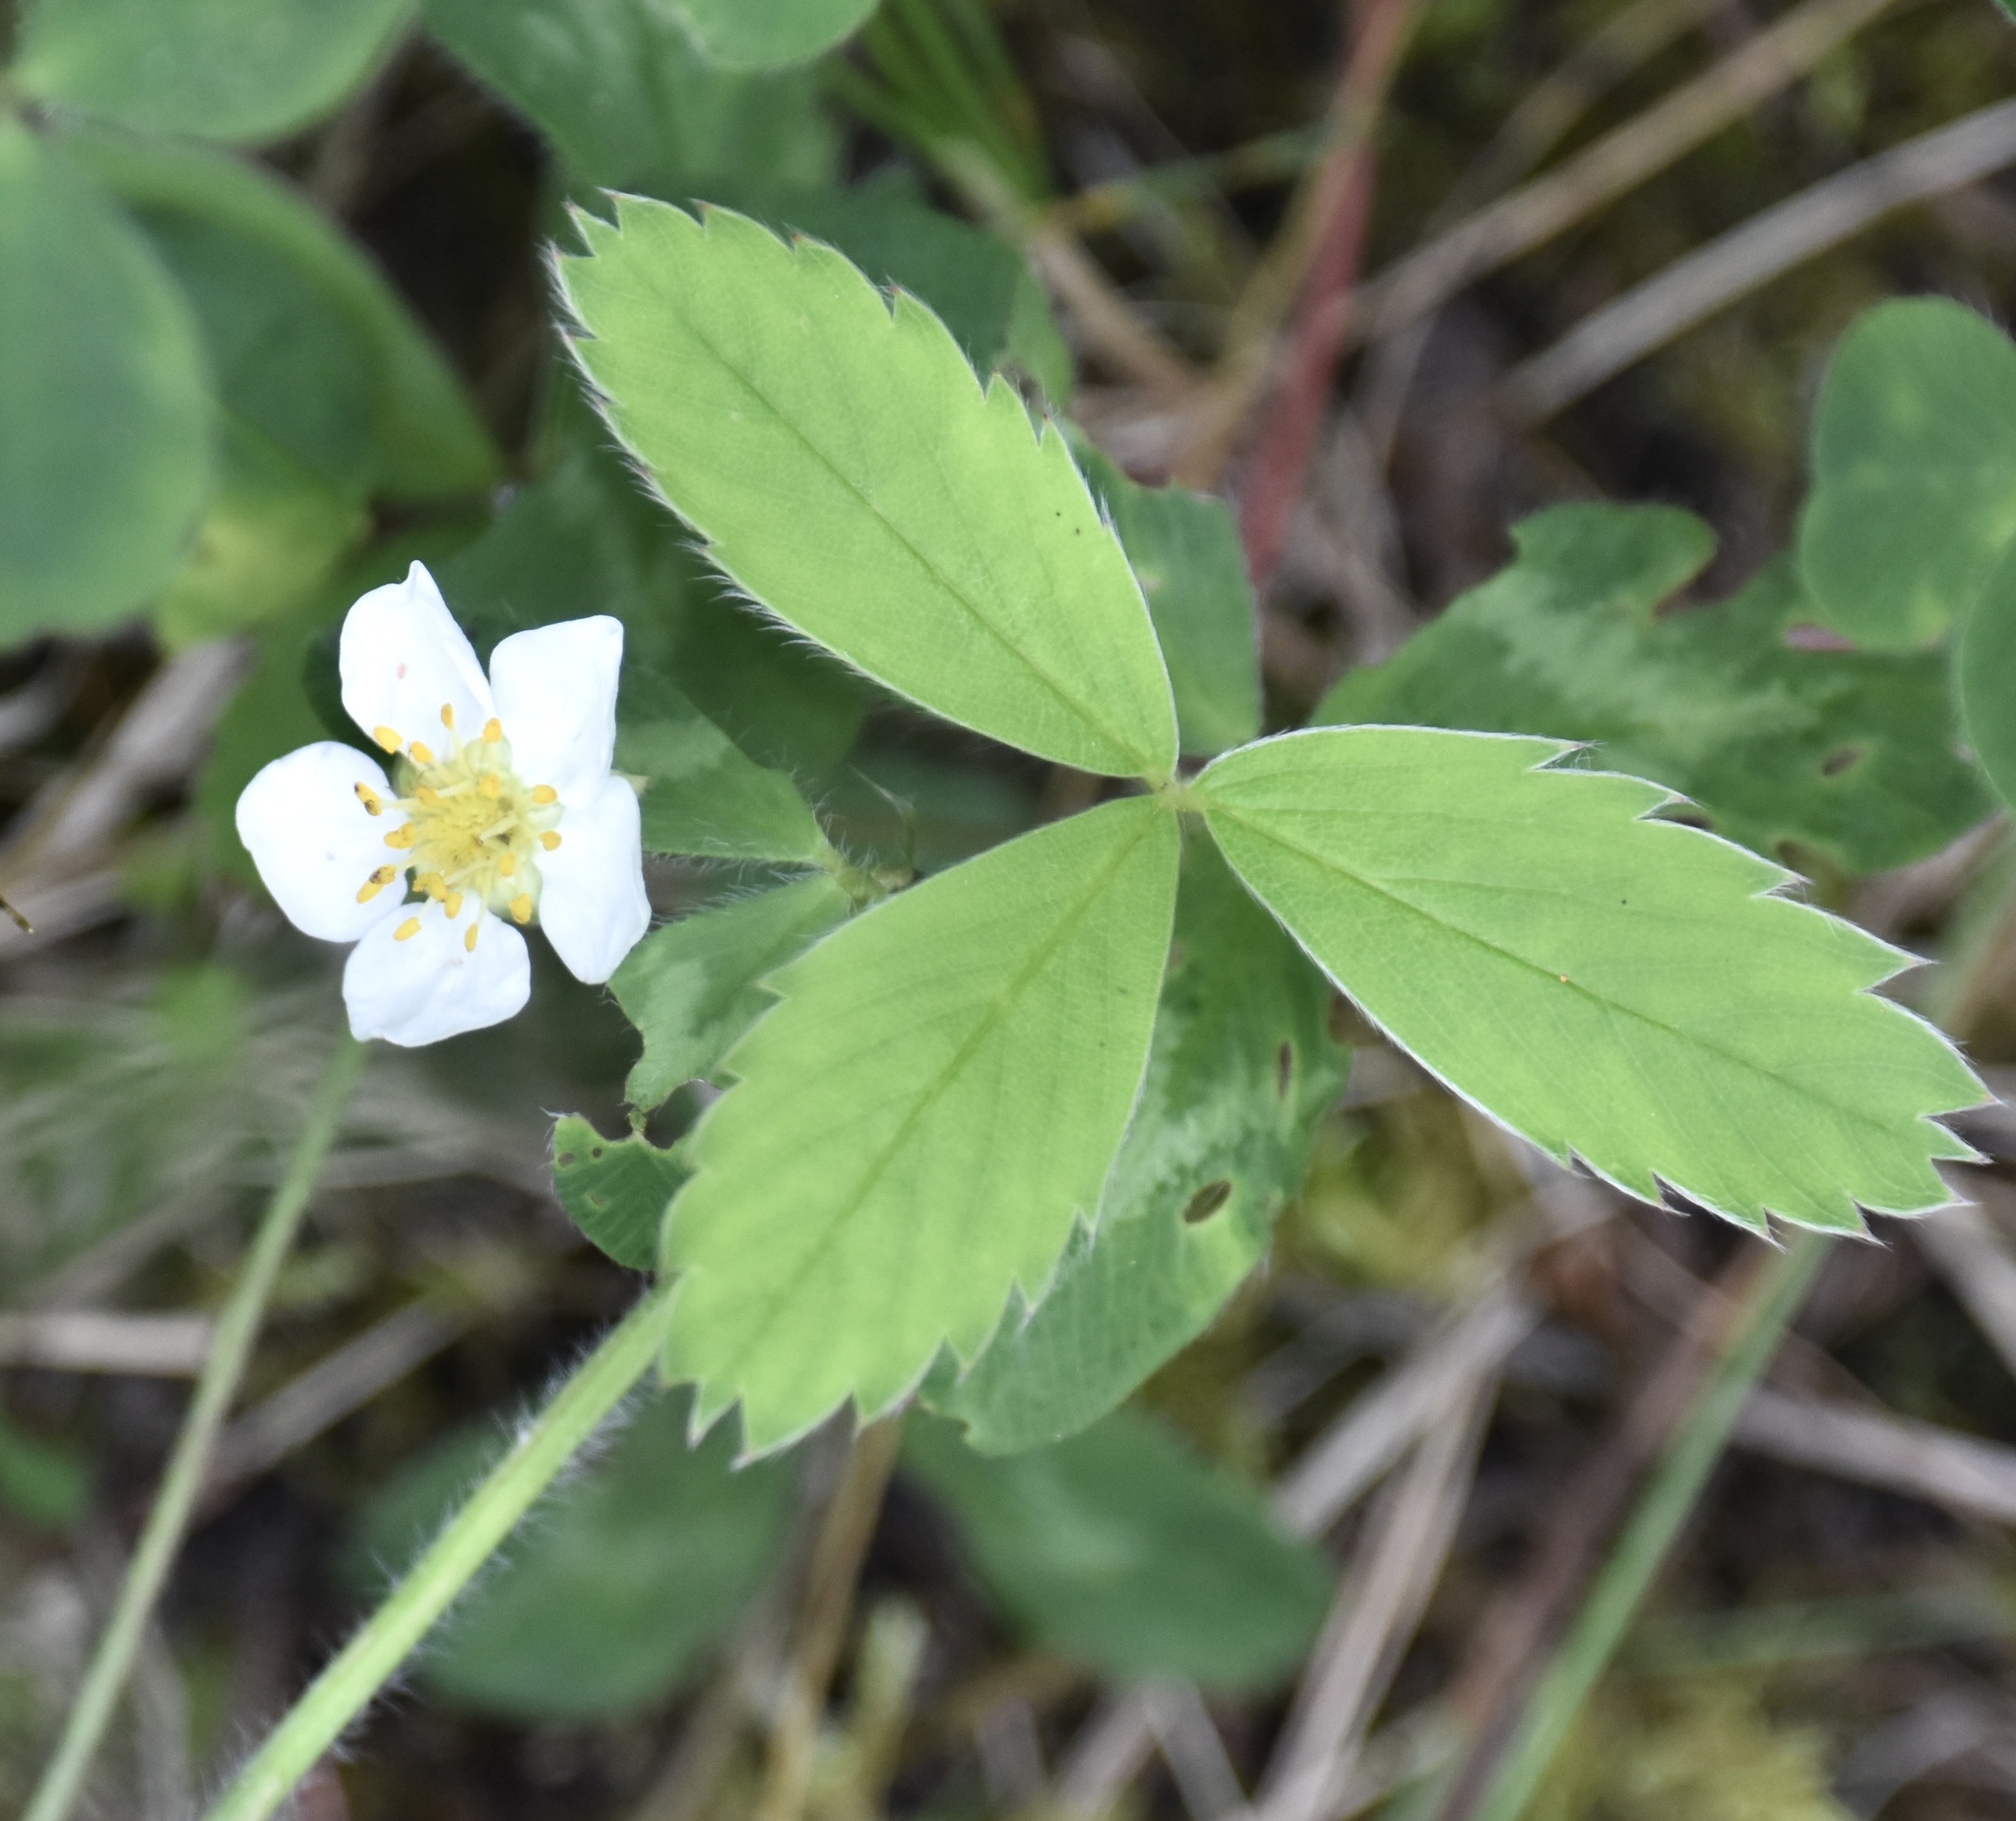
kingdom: Plantae
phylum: Tracheophyta
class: Magnoliopsida
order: Rosales
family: Rosaceae
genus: Fragaria
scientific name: Fragaria virginiana
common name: Thickleaved wild strawberry
